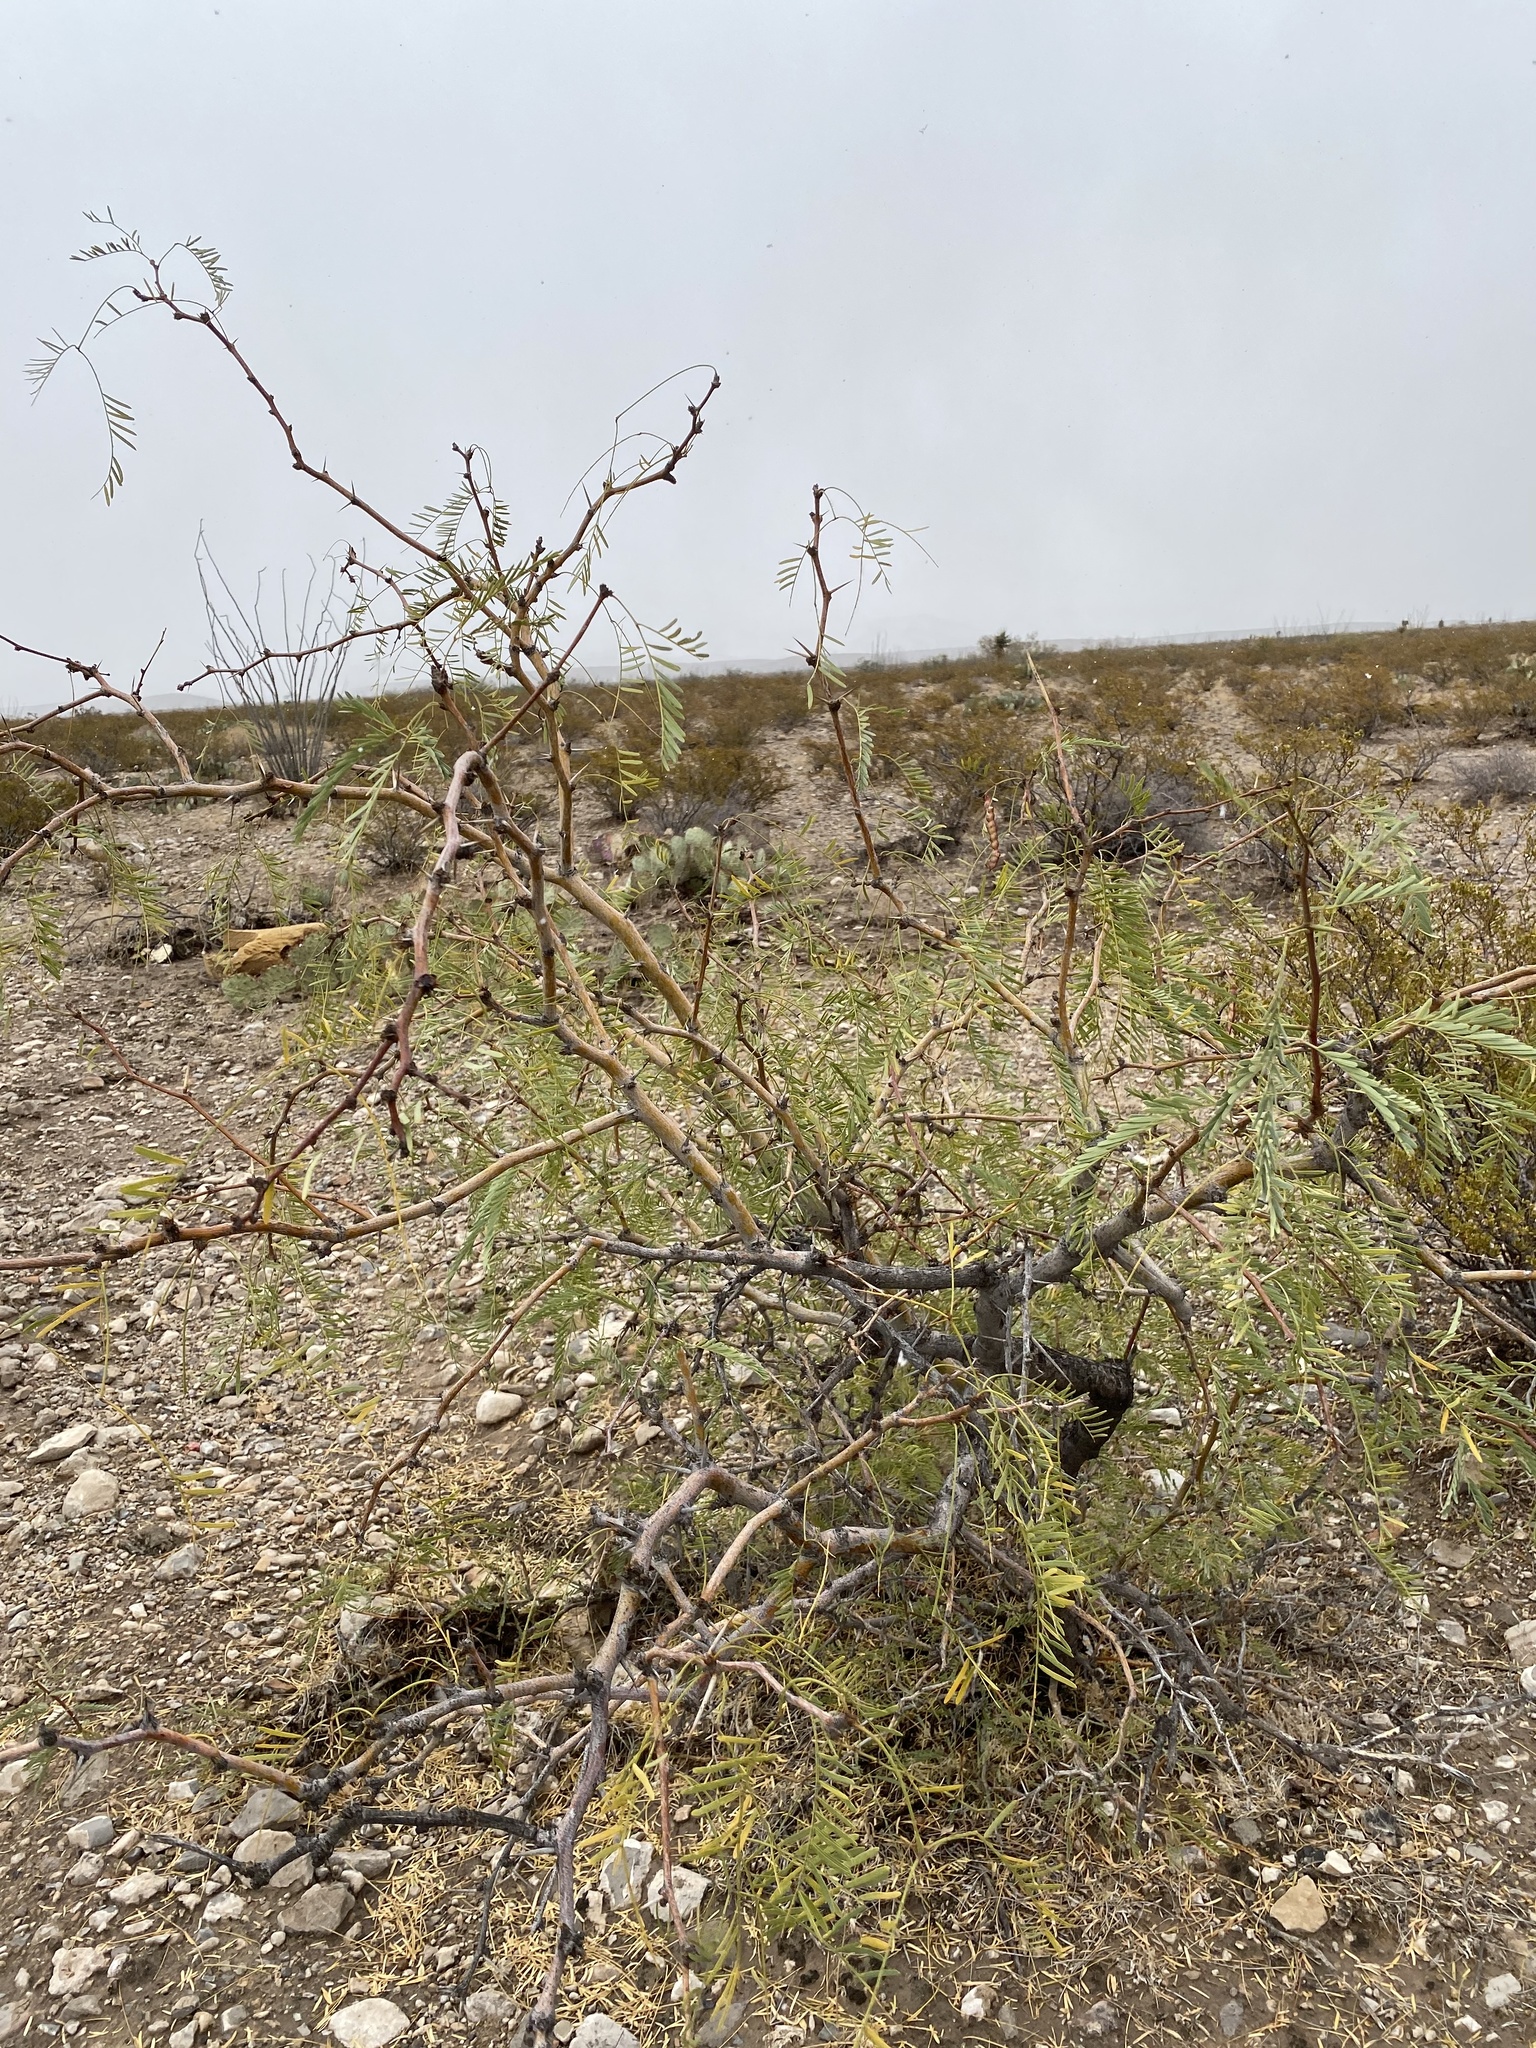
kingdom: Plantae
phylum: Tracheophyta
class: Magnoliopsida
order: Fabales
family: Fabaceae
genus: Prosopis
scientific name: Prosopis glandulosa
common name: Honey mesquite
